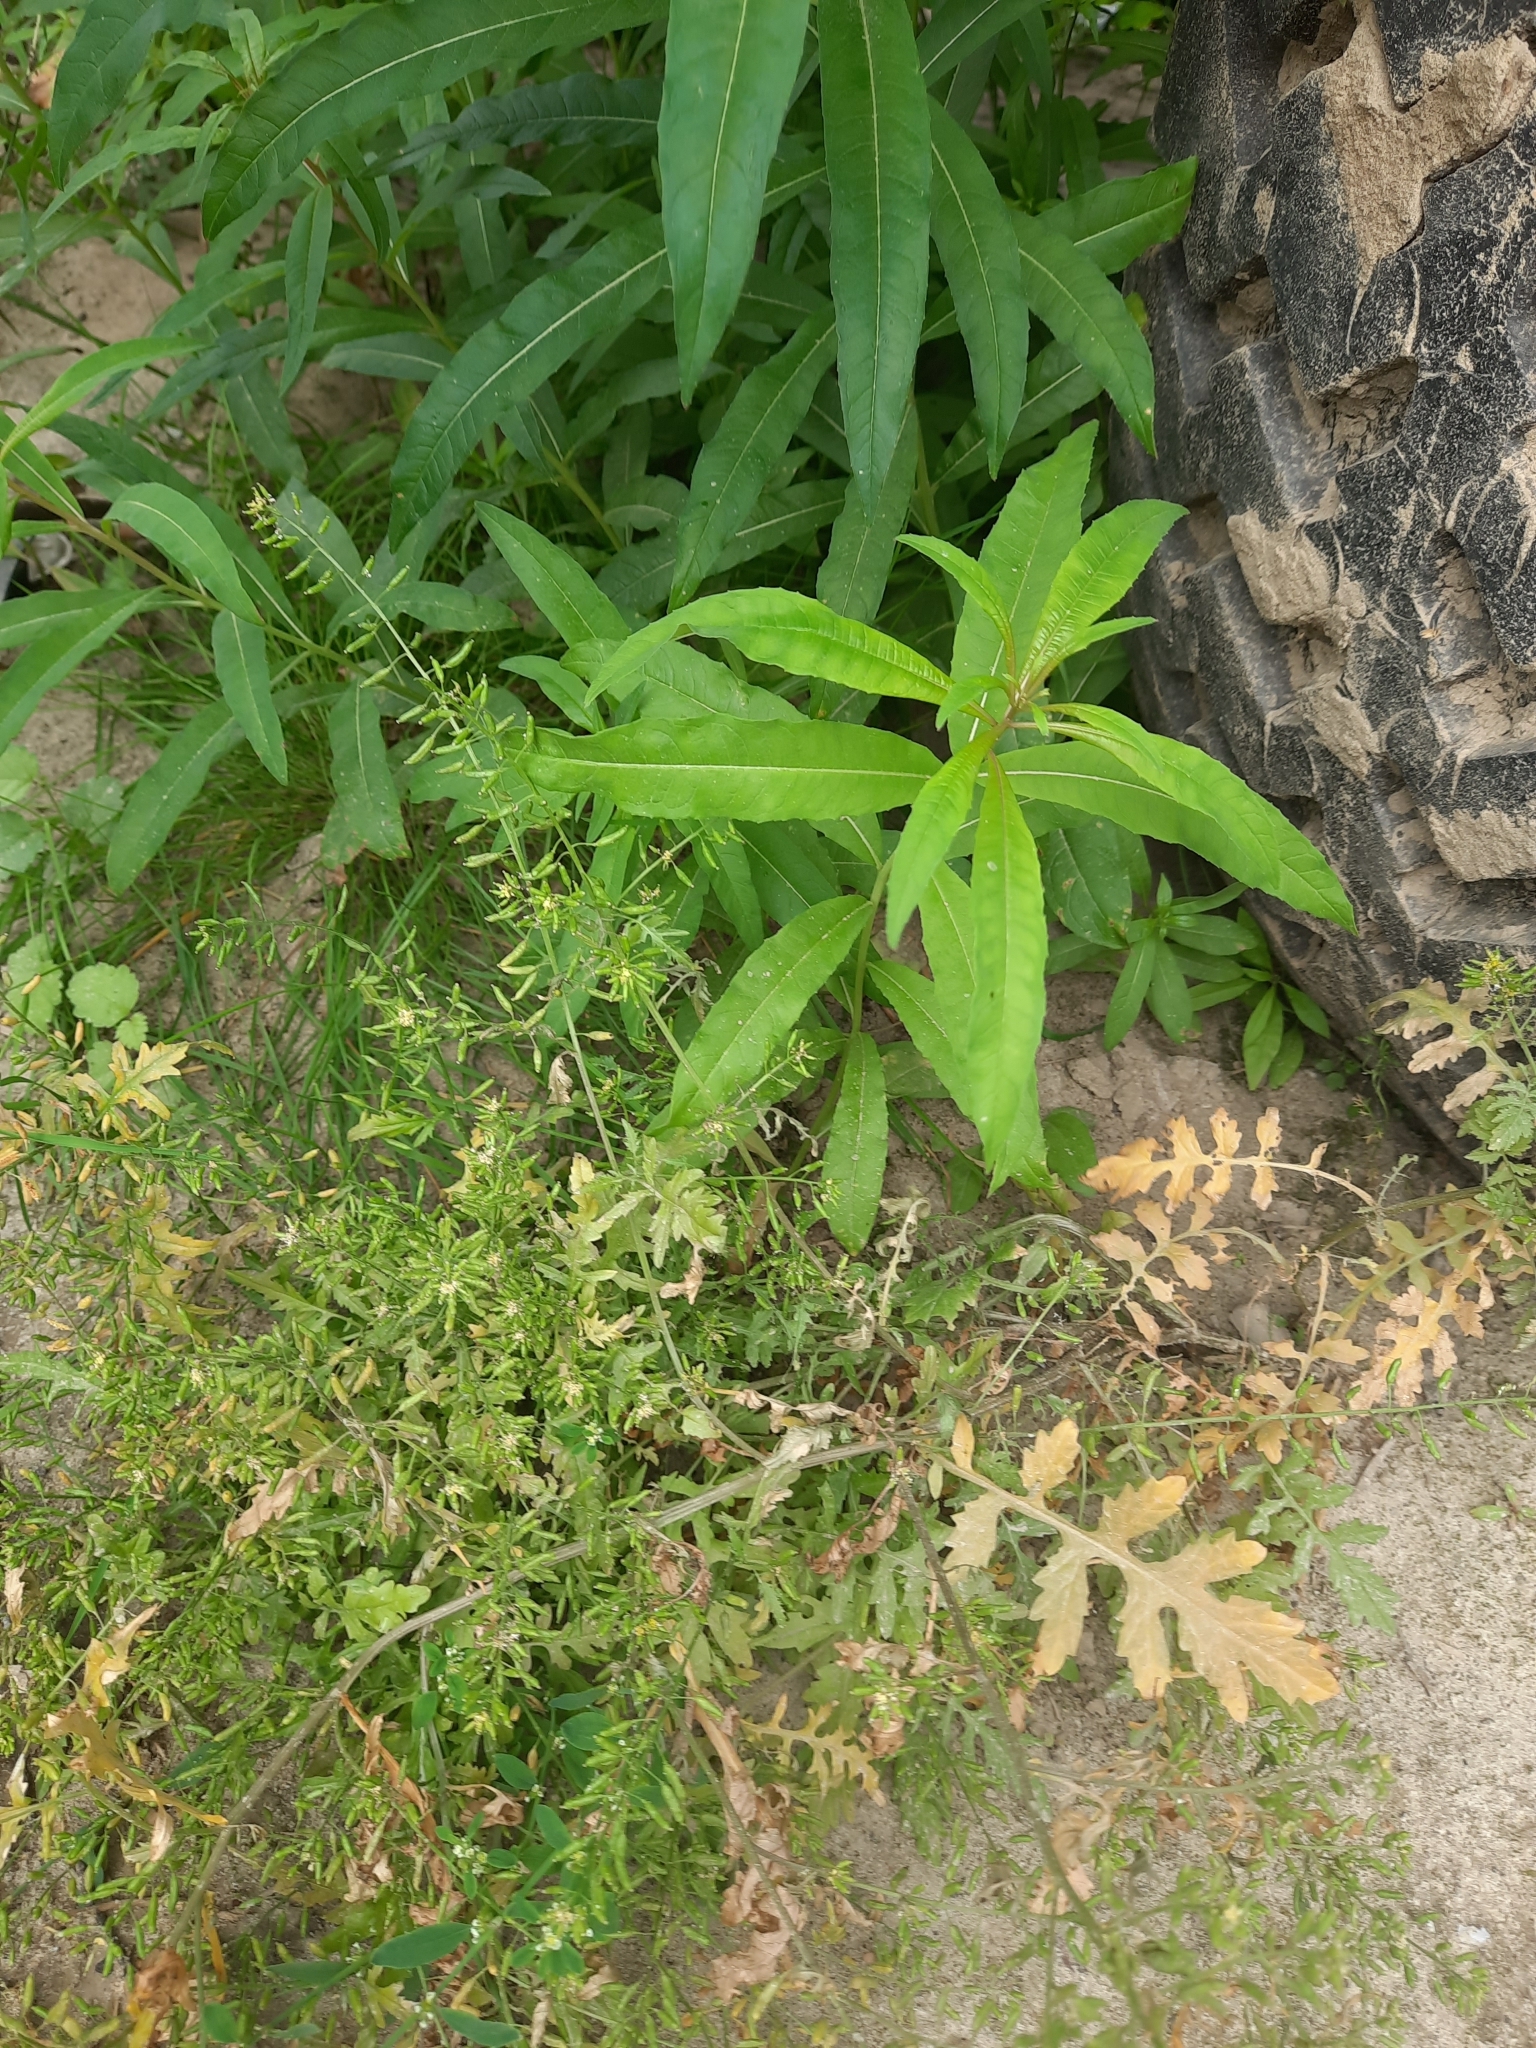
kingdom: Plantae
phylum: Tracheophyta
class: Magnoliopsida
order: Brassicales
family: Brassicaceae
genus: Rorippa
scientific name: Rorippa palustris
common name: Marsh yellow-cress
